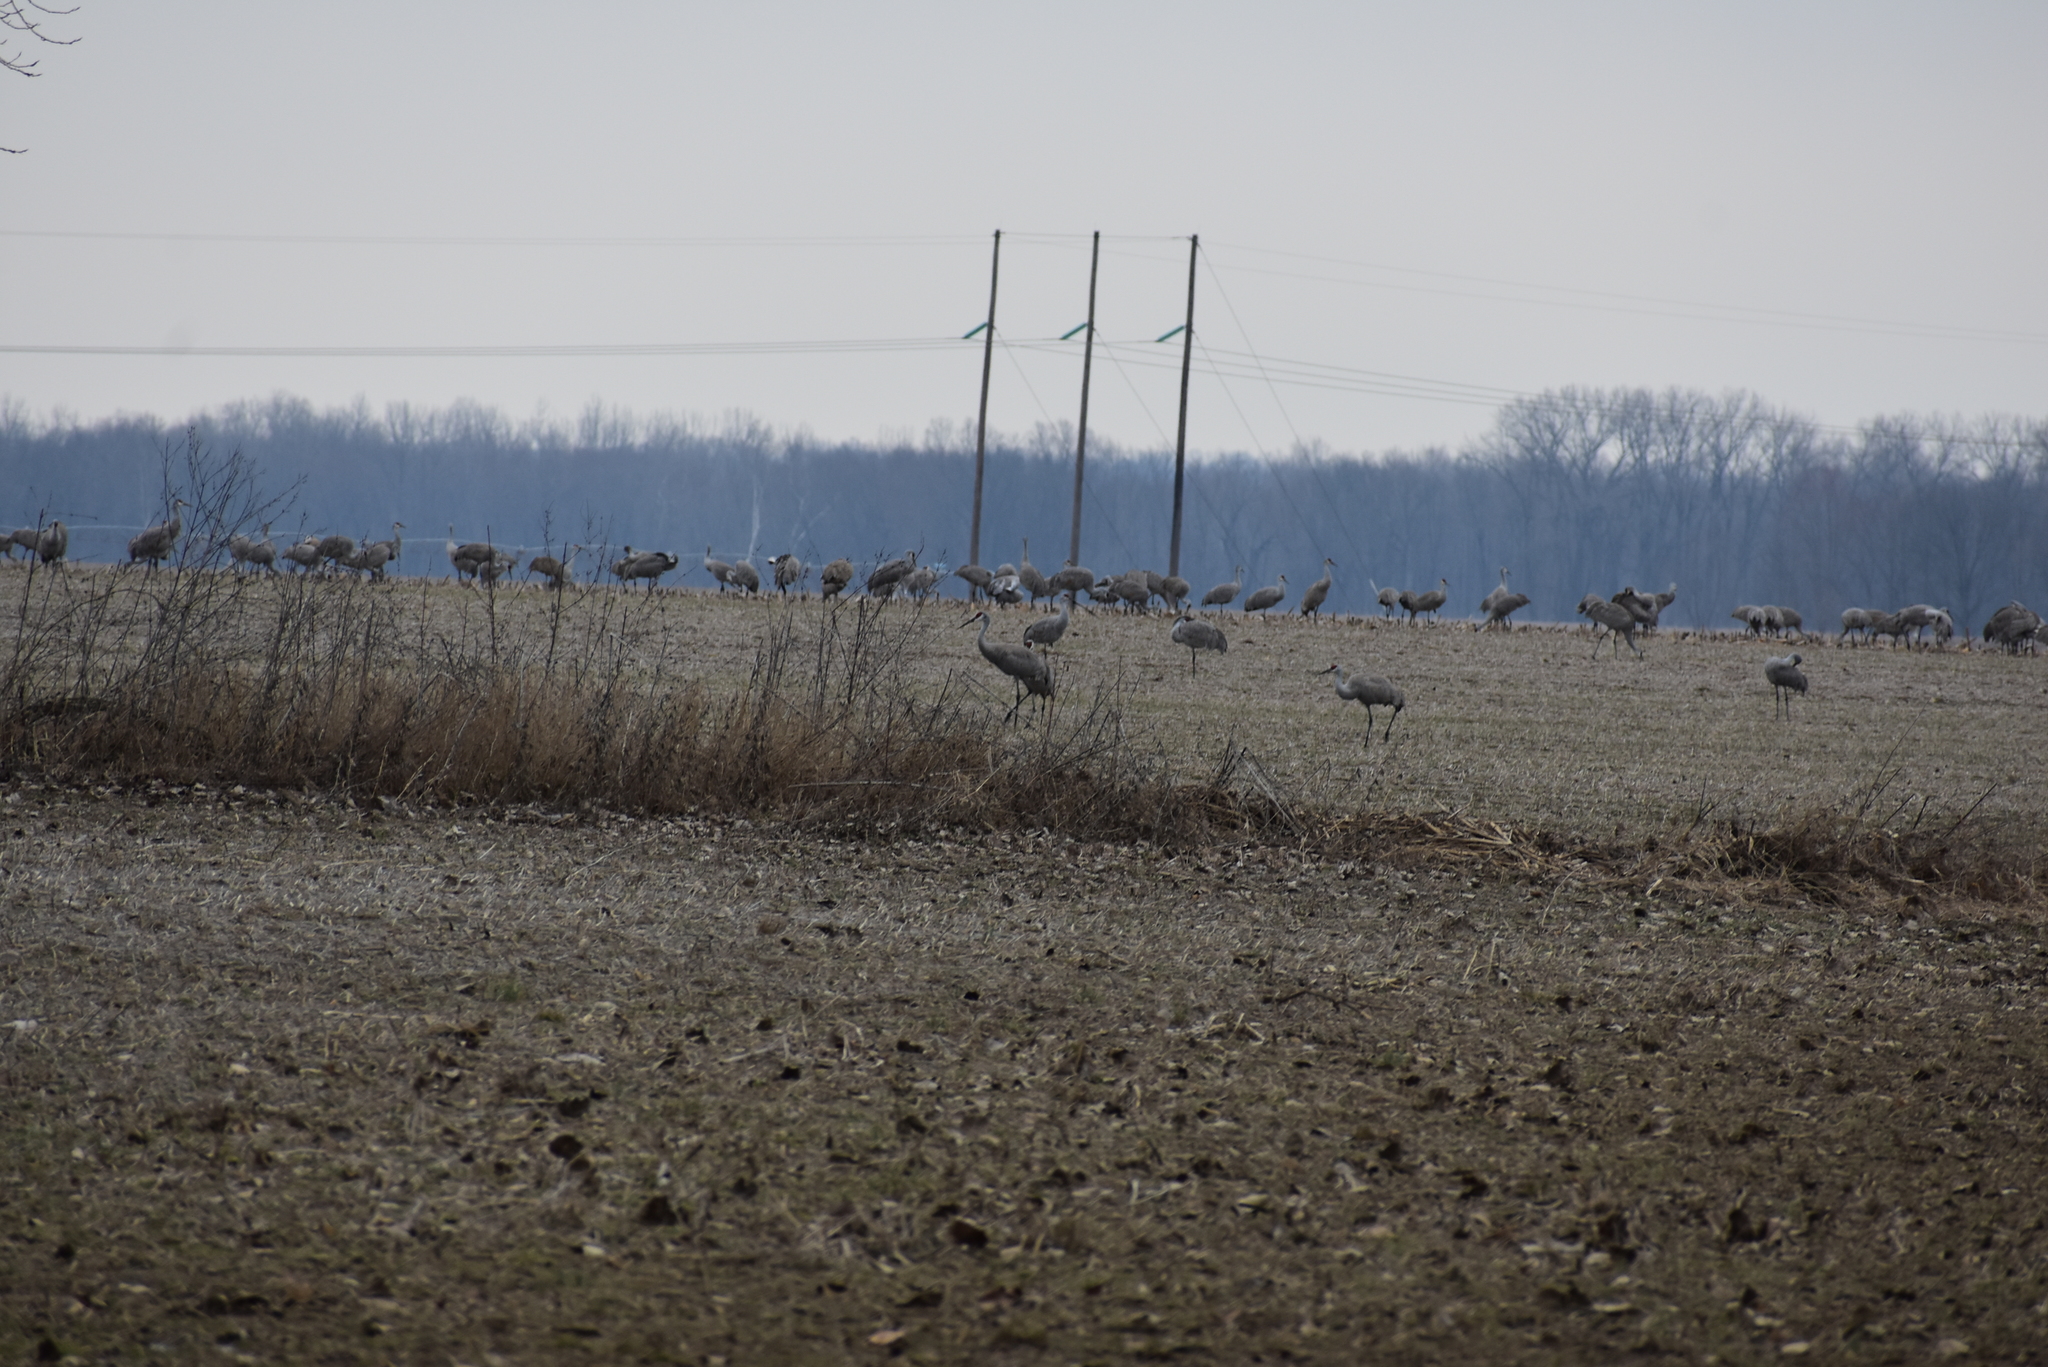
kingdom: Animalia
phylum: Chordata
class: Aves
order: Gruiformes
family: Gruidae
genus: Grus
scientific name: Grus canadensis
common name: Sandhill crane
